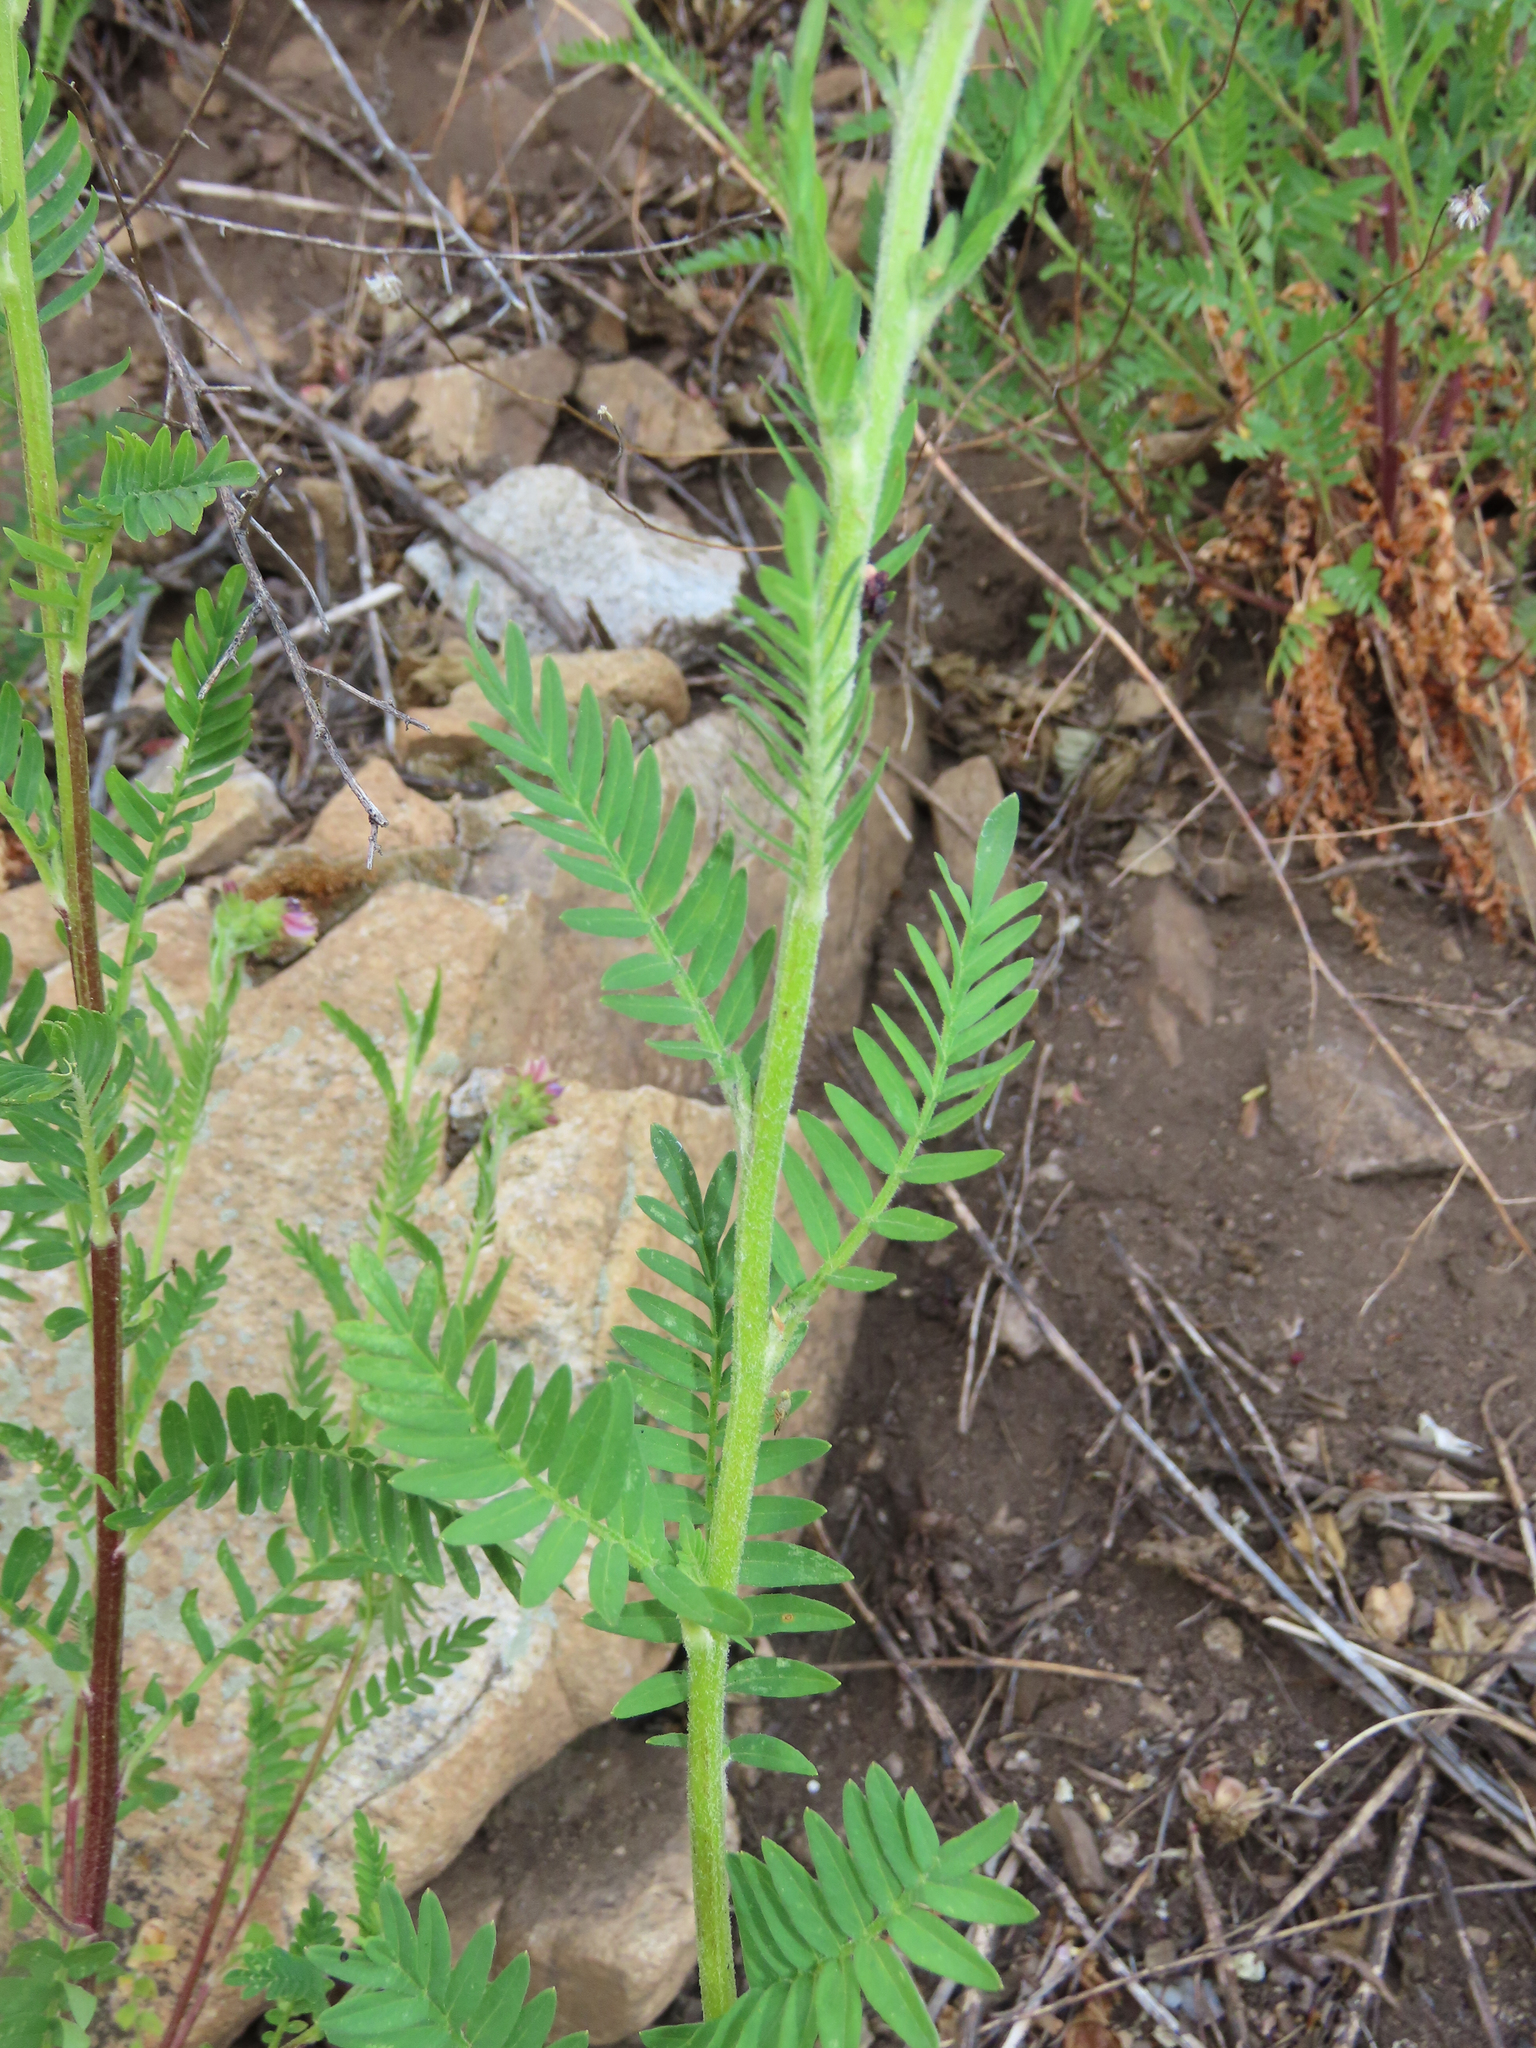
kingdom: Plantae
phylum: Tracheophyta
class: Magnoliopsida
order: Ericales
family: Polemoniaceae
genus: Polemonium
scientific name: Polemonium foliosissimum
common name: Leafy jacob's-ladder
